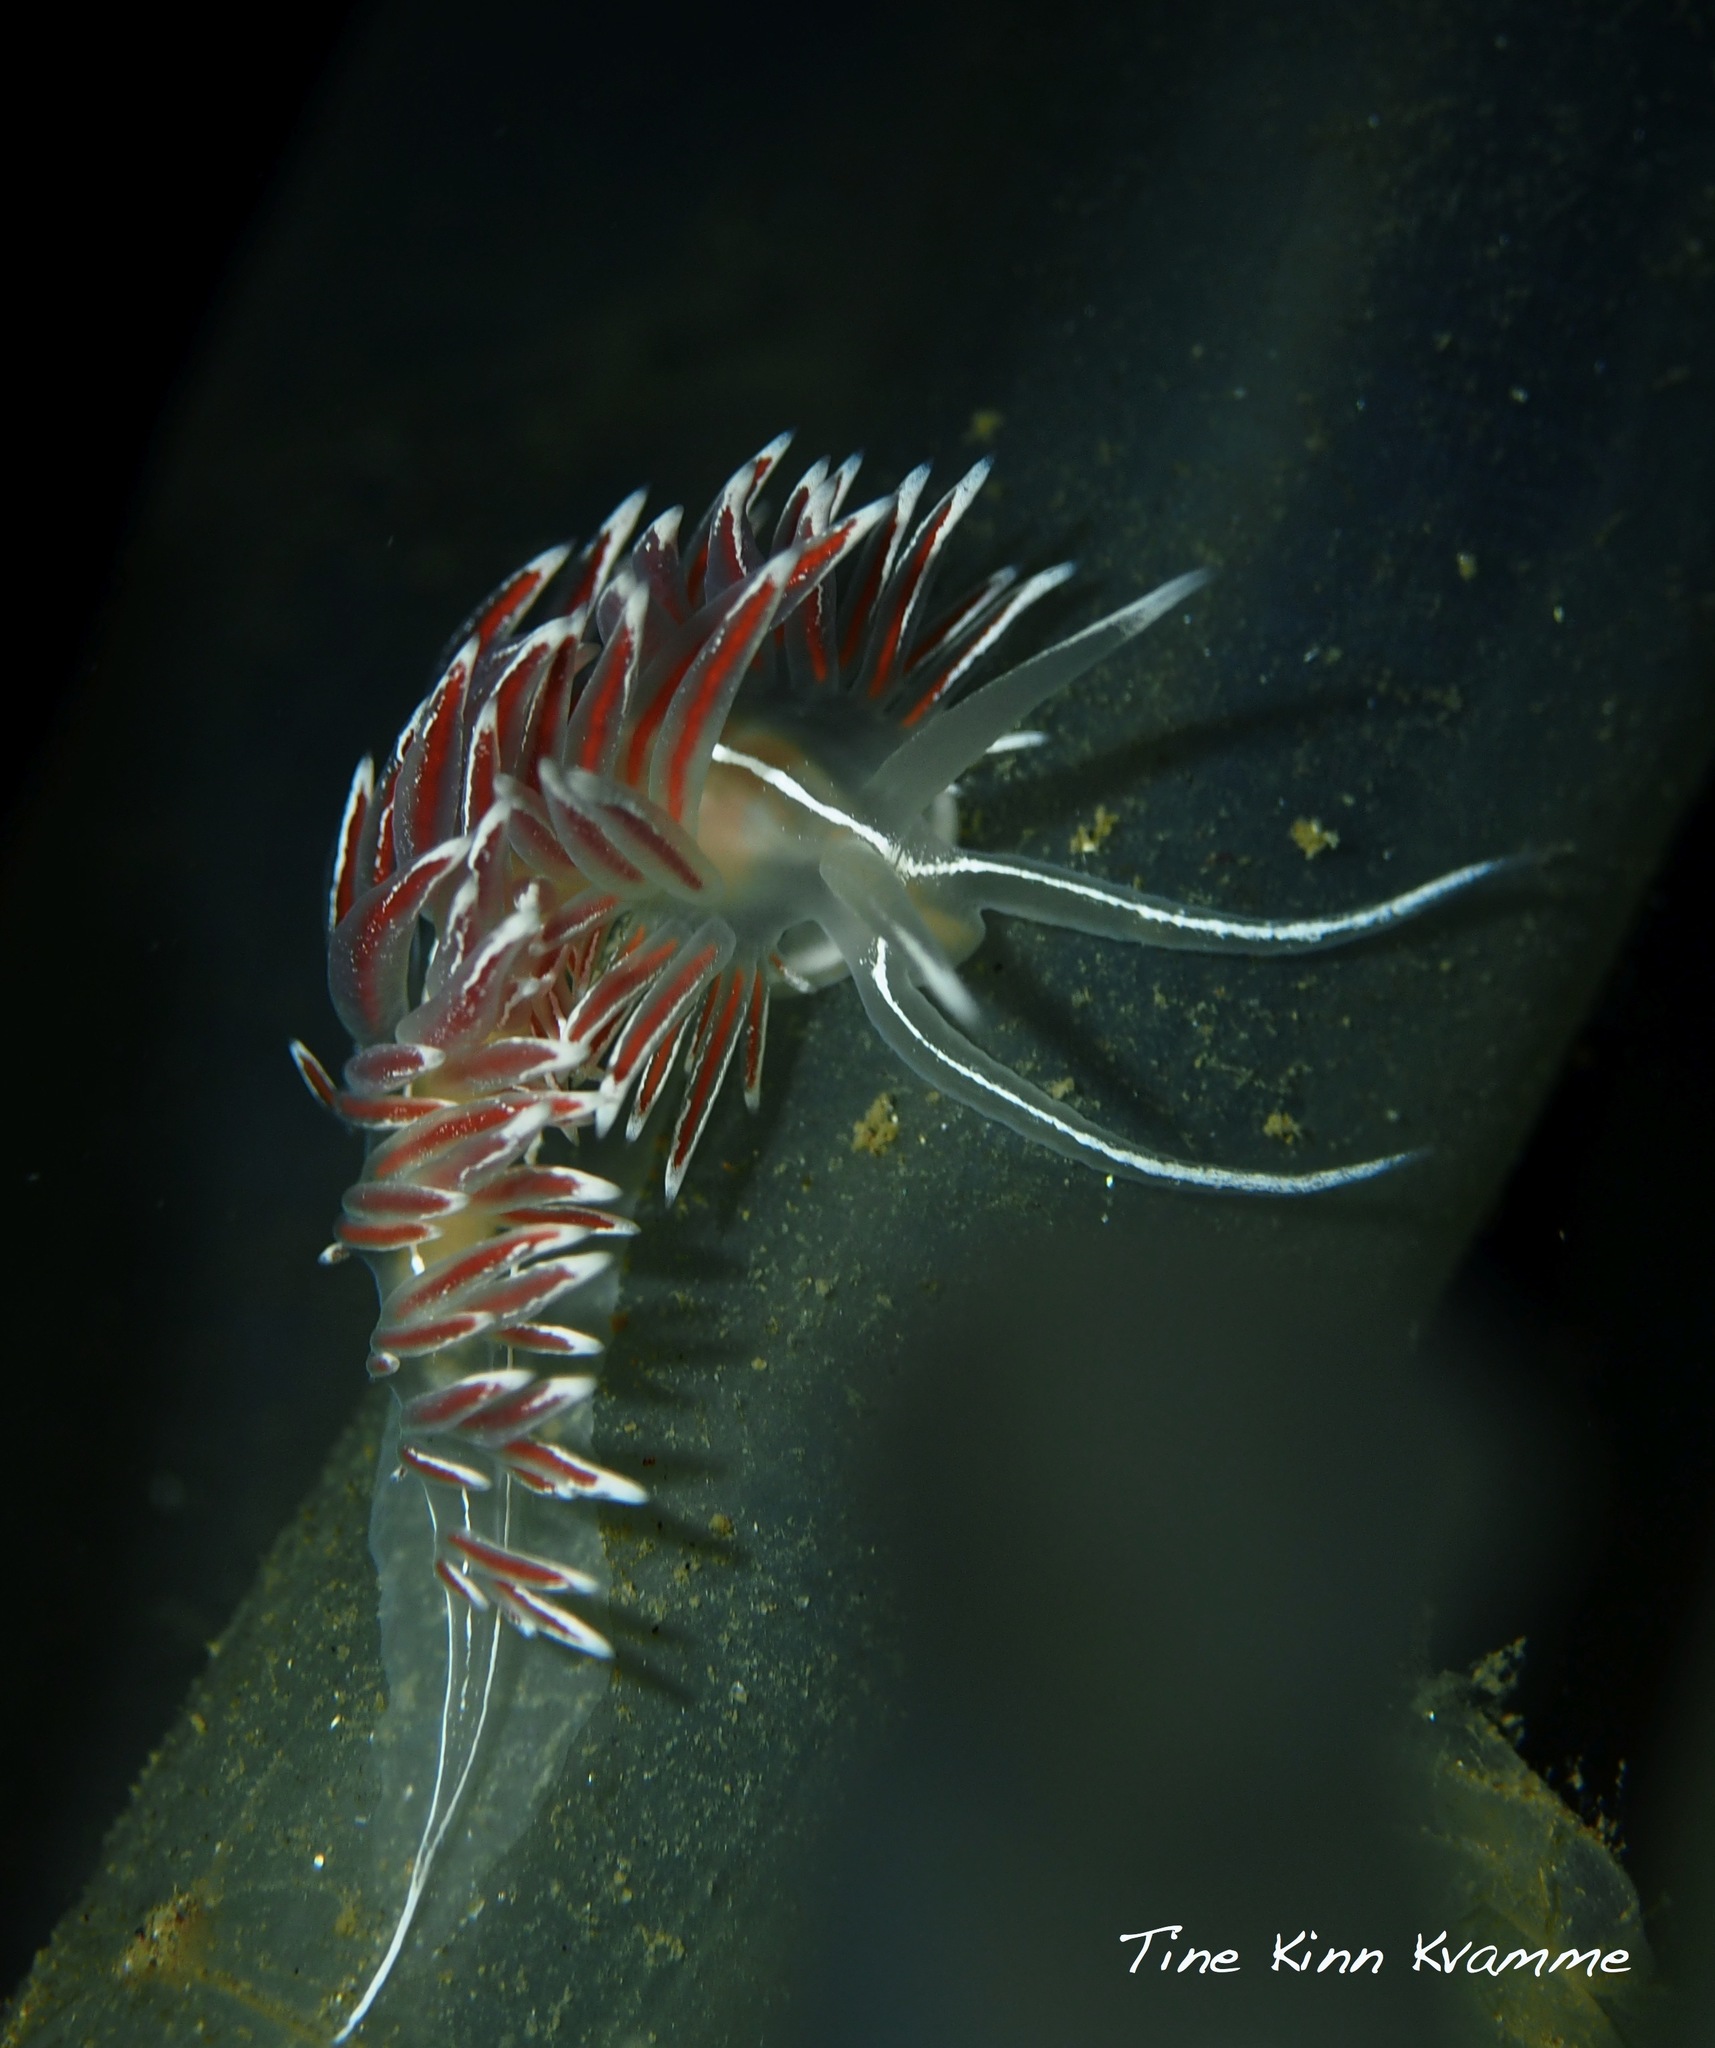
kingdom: Animalia
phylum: Mollusca
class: Gastropoda
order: Nudibranchia
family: Coryphellidae
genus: Coryphella
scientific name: Coryphella lineata
